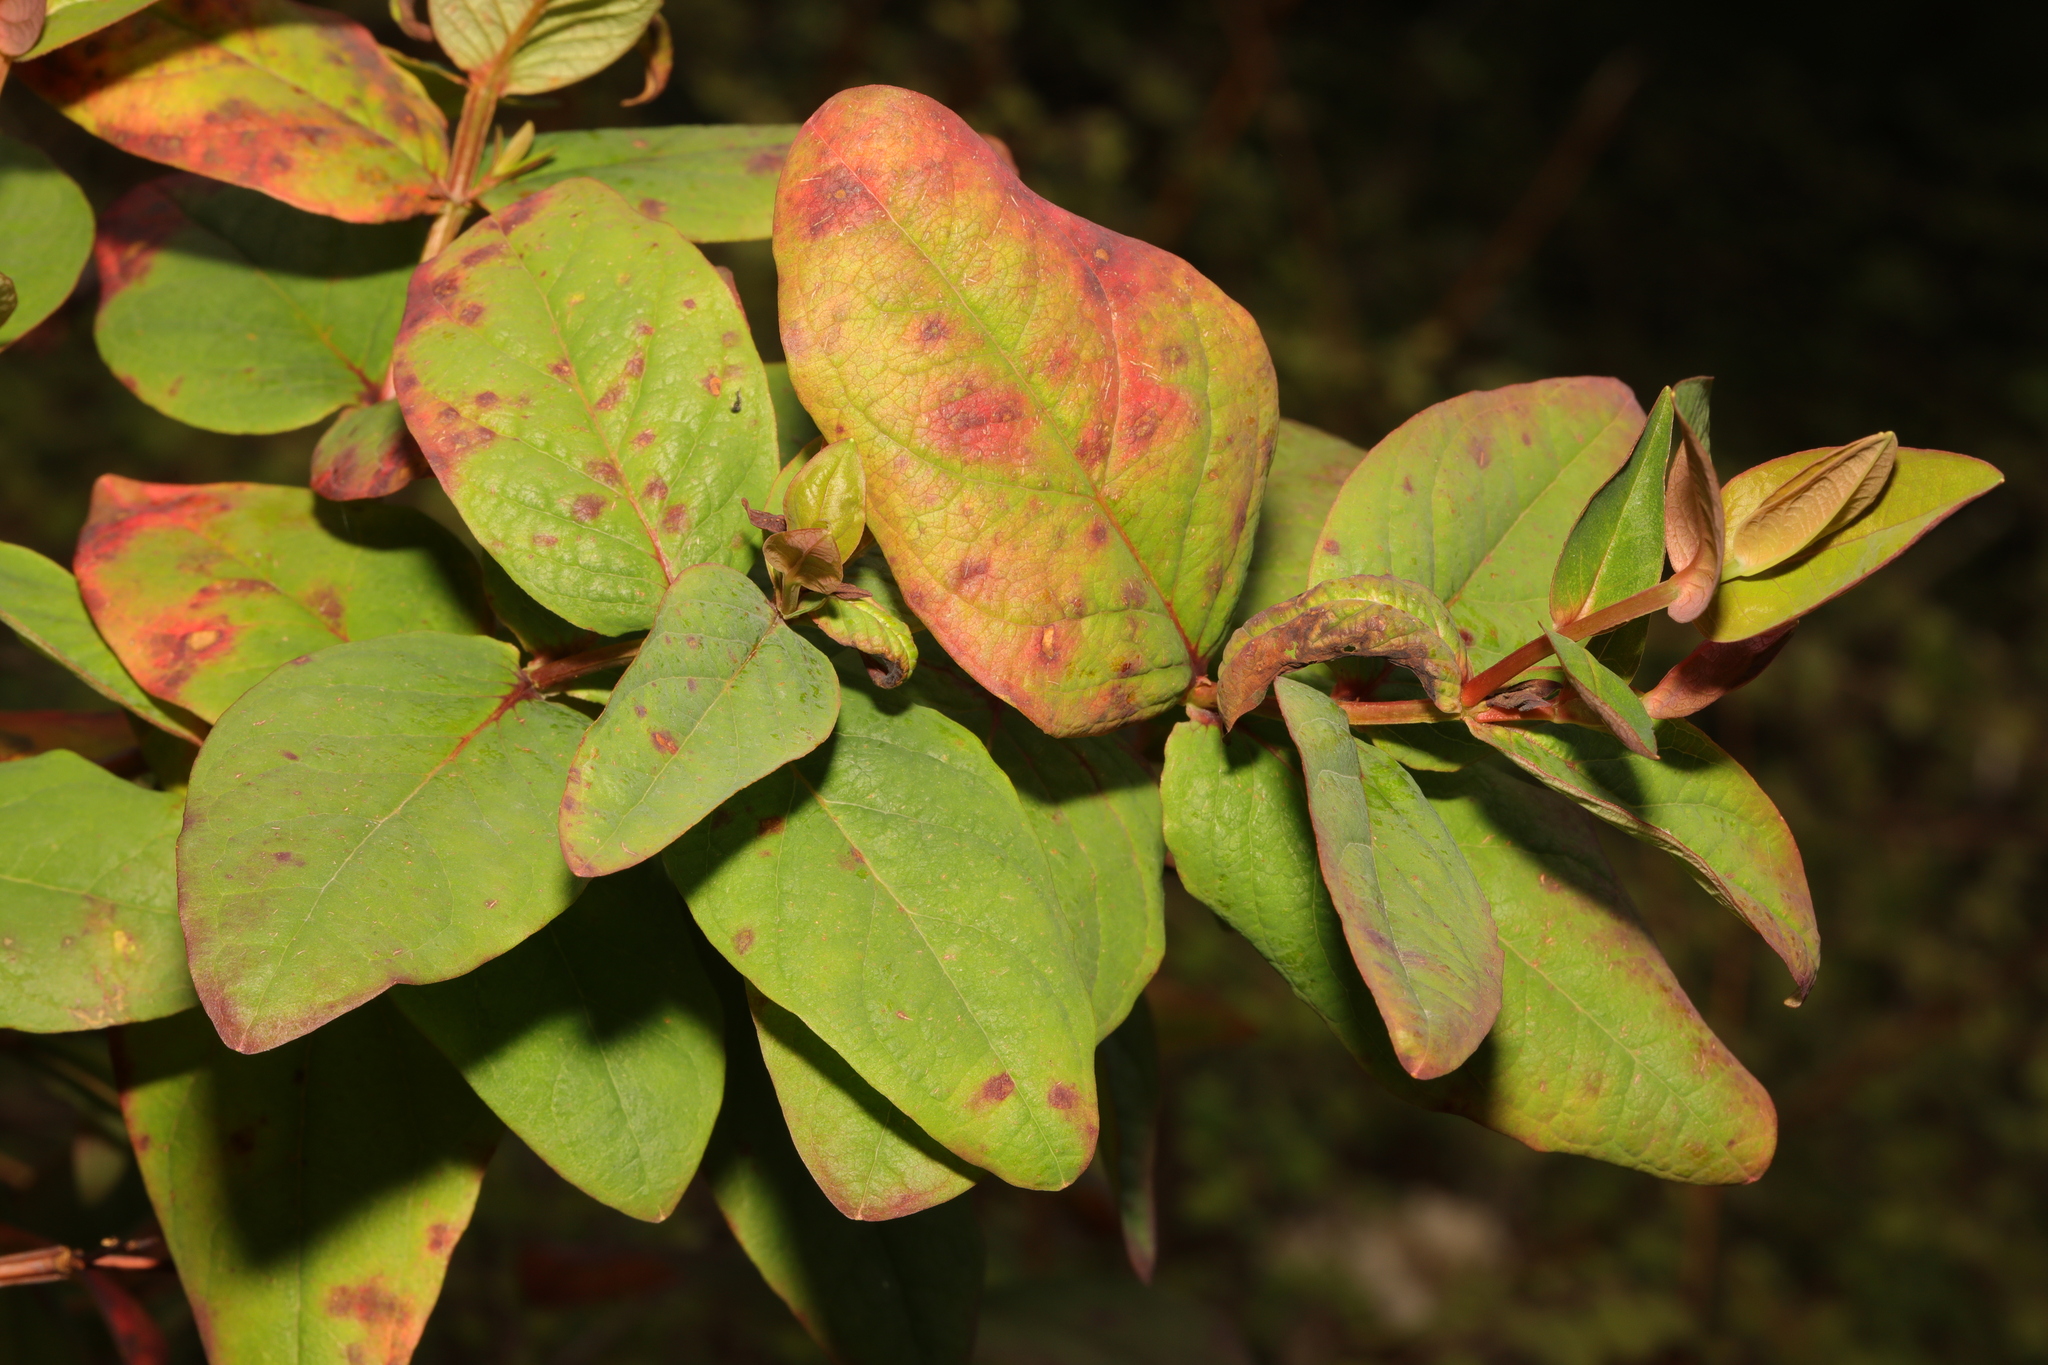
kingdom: Plantae
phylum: Tracheophyta
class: Magnoliopsida
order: Malpighiales
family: Hypericaceae
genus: Hypericum
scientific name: Hypericum androsaemum
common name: Sweet-amber
